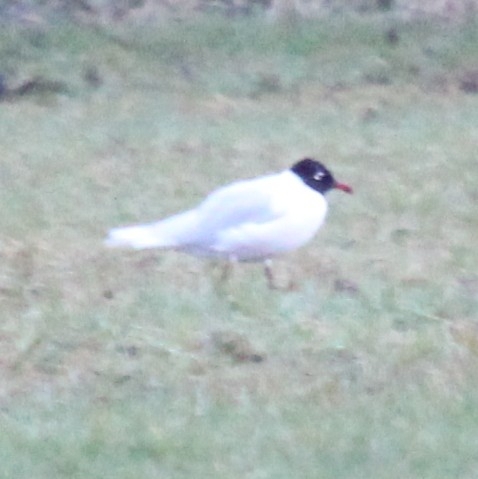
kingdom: Animalia
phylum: Chordata
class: Aves
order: Charadriiformes
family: Laridae
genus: Ichthyaetus
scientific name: Ichthyaetus melanocephalus
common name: Mediterranean gull
